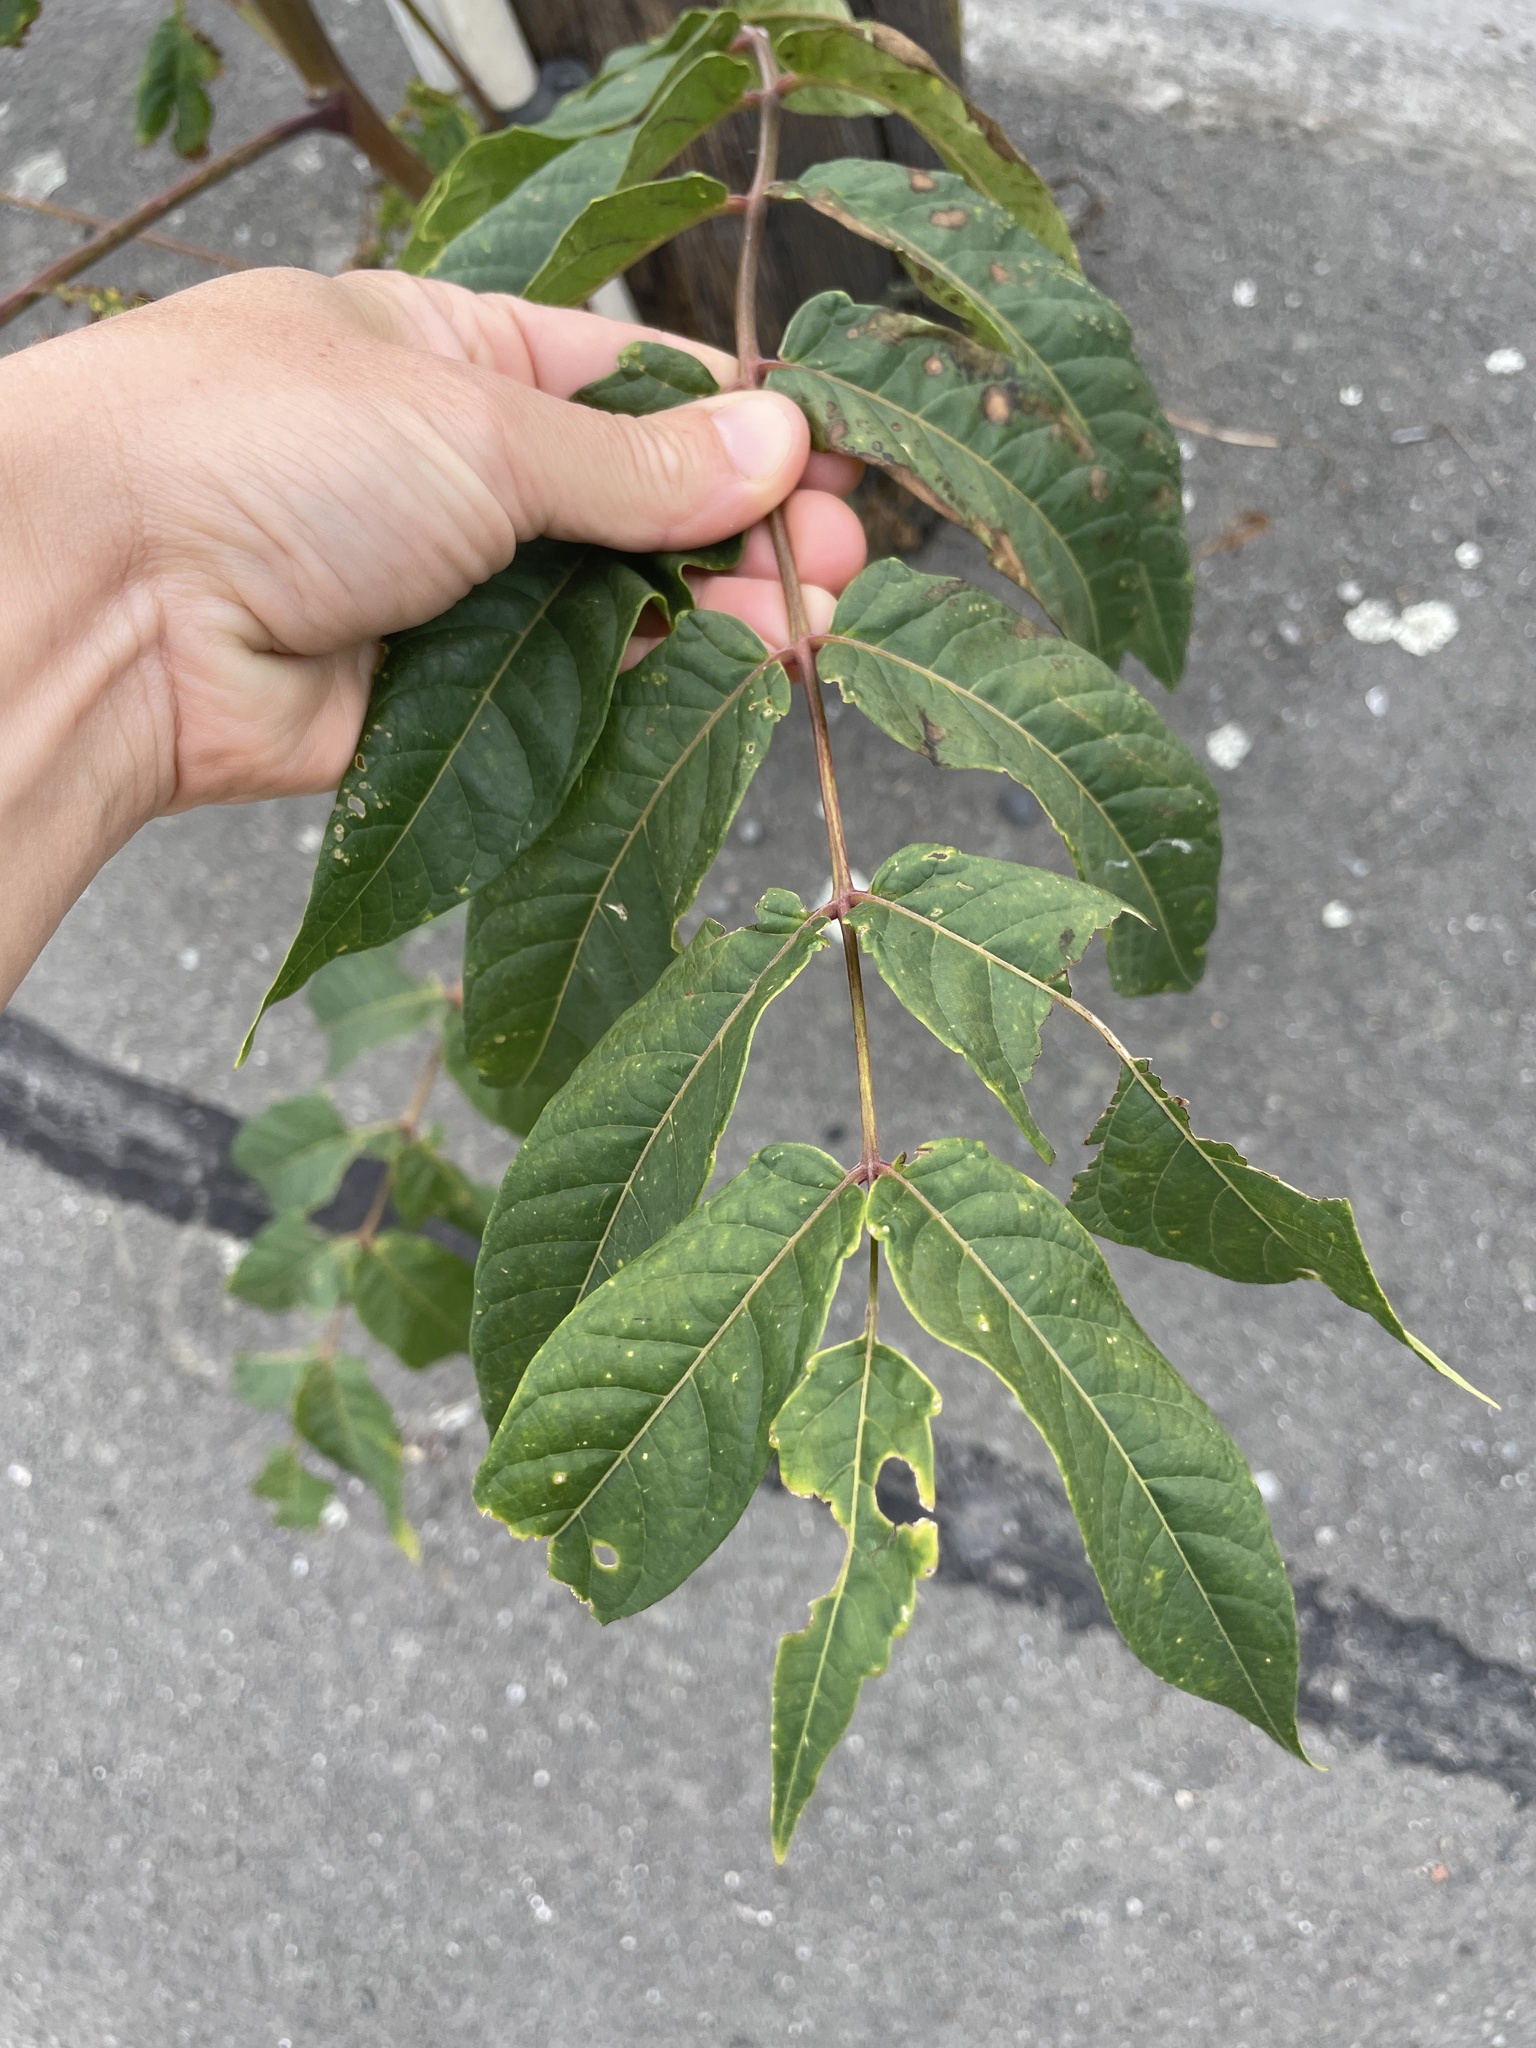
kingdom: Plantae
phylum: Tracheophyta
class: Magnoliopsida
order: Sapindales
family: Simaroubaceae
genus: Ailanthus
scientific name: Ailanthus altissima
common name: Tree-of-heaven
